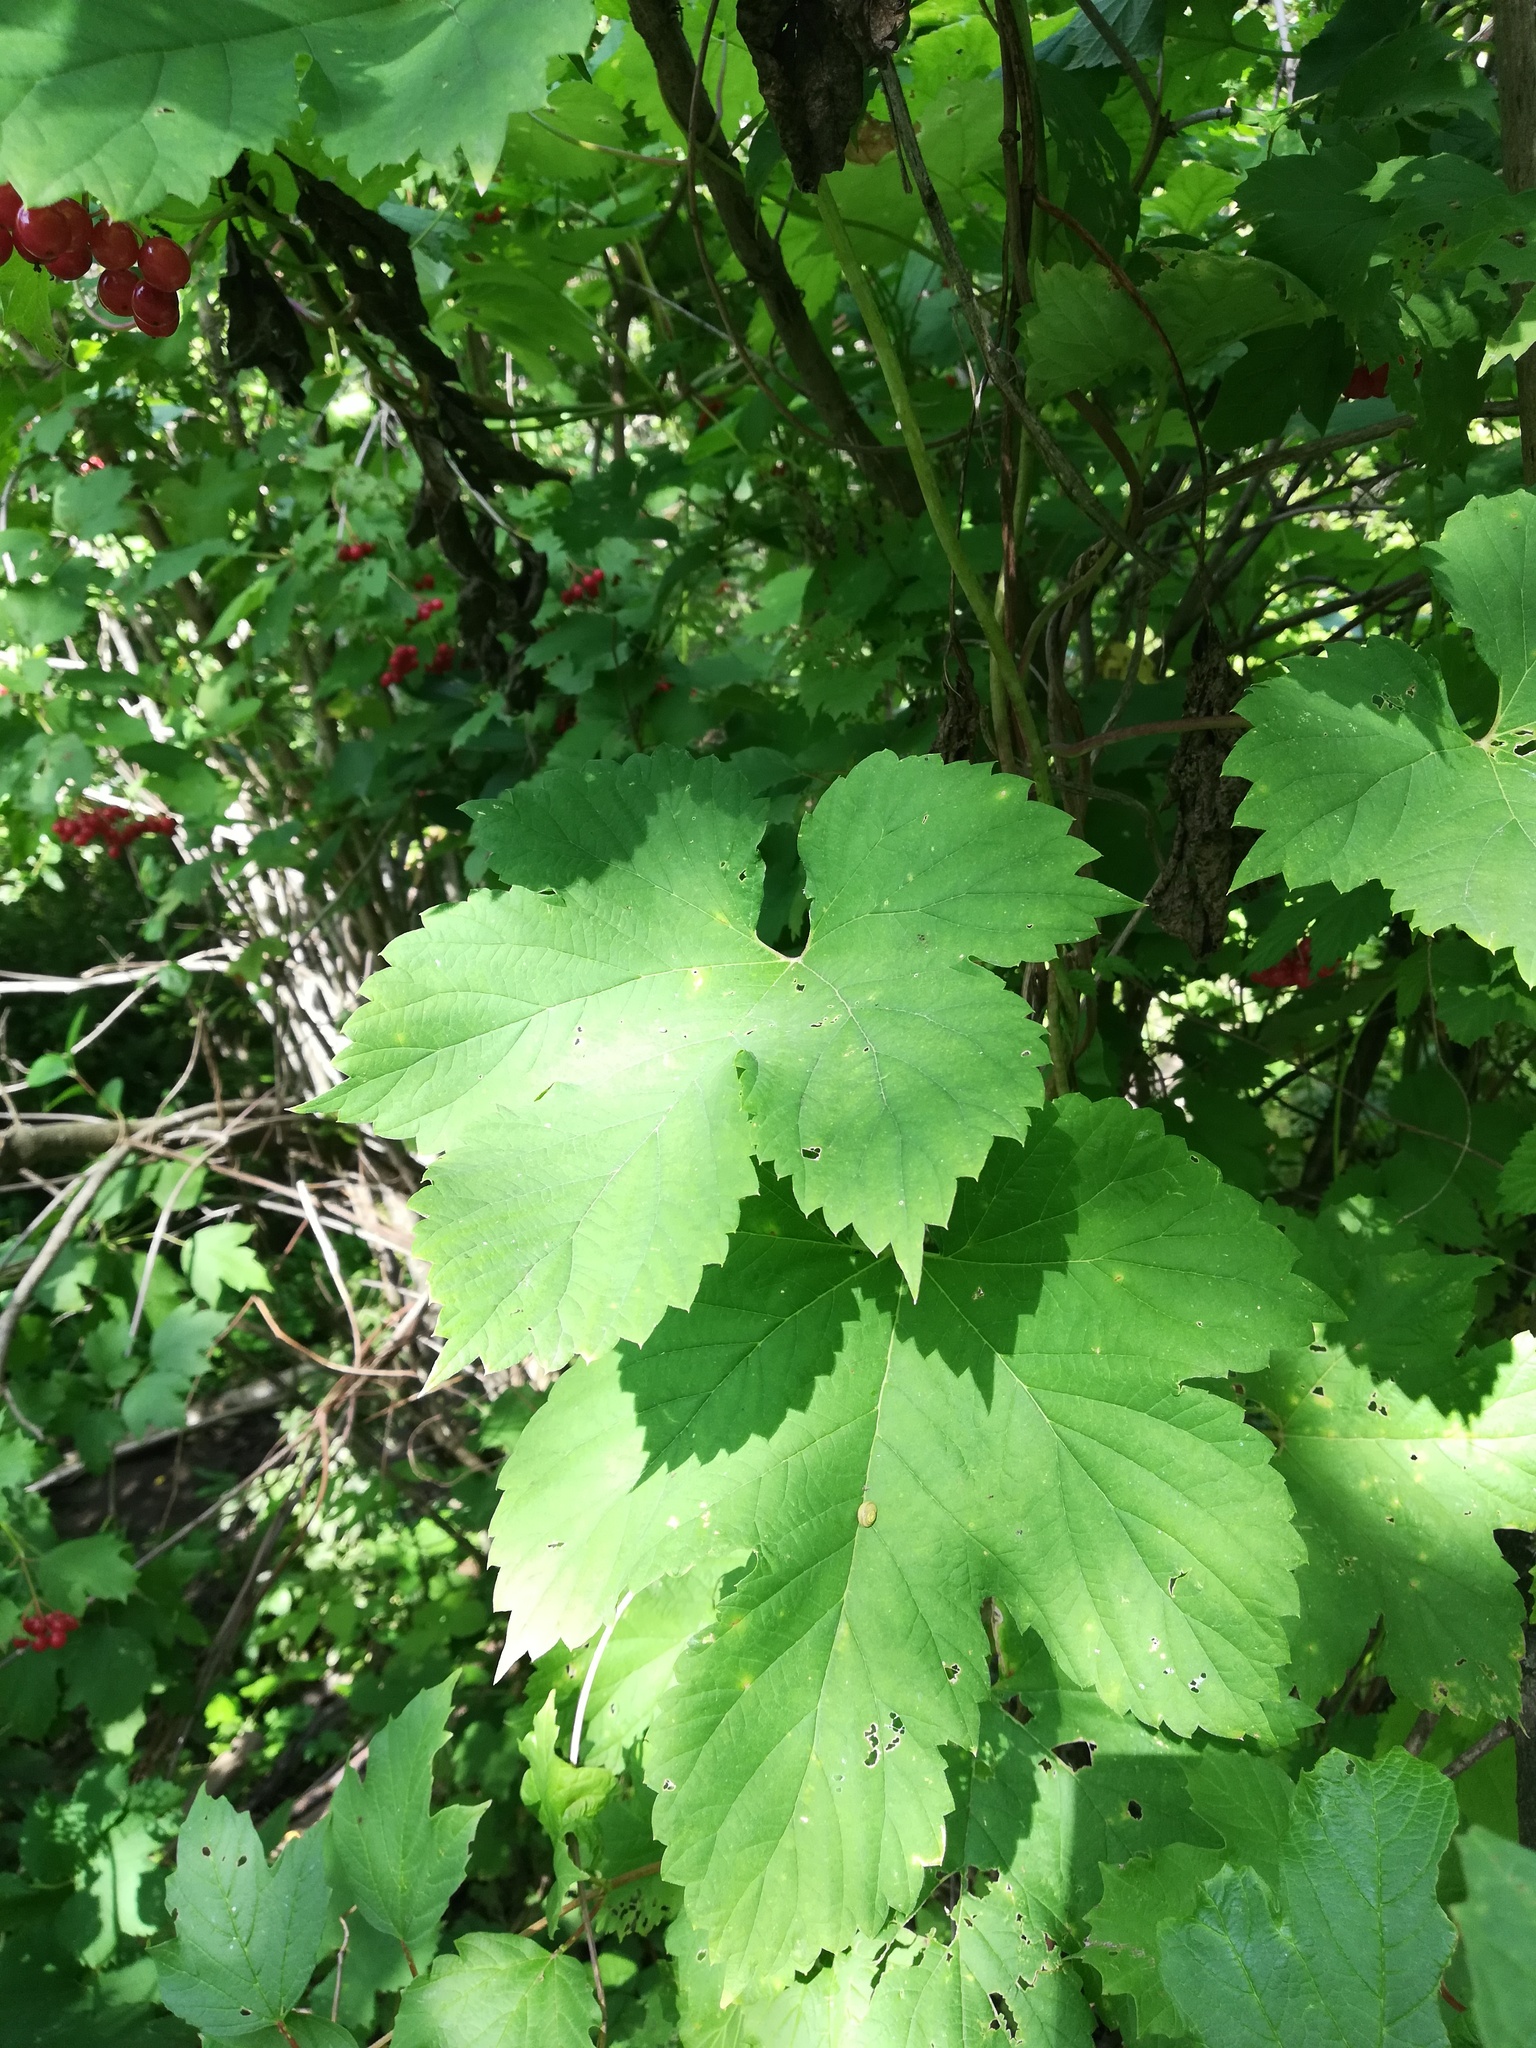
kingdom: Plantae
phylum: Tracheophyta
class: Magnoliopsida
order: Rosales
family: Cannabaceae
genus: Humulus
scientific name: Humulus lupulus
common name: Hop
